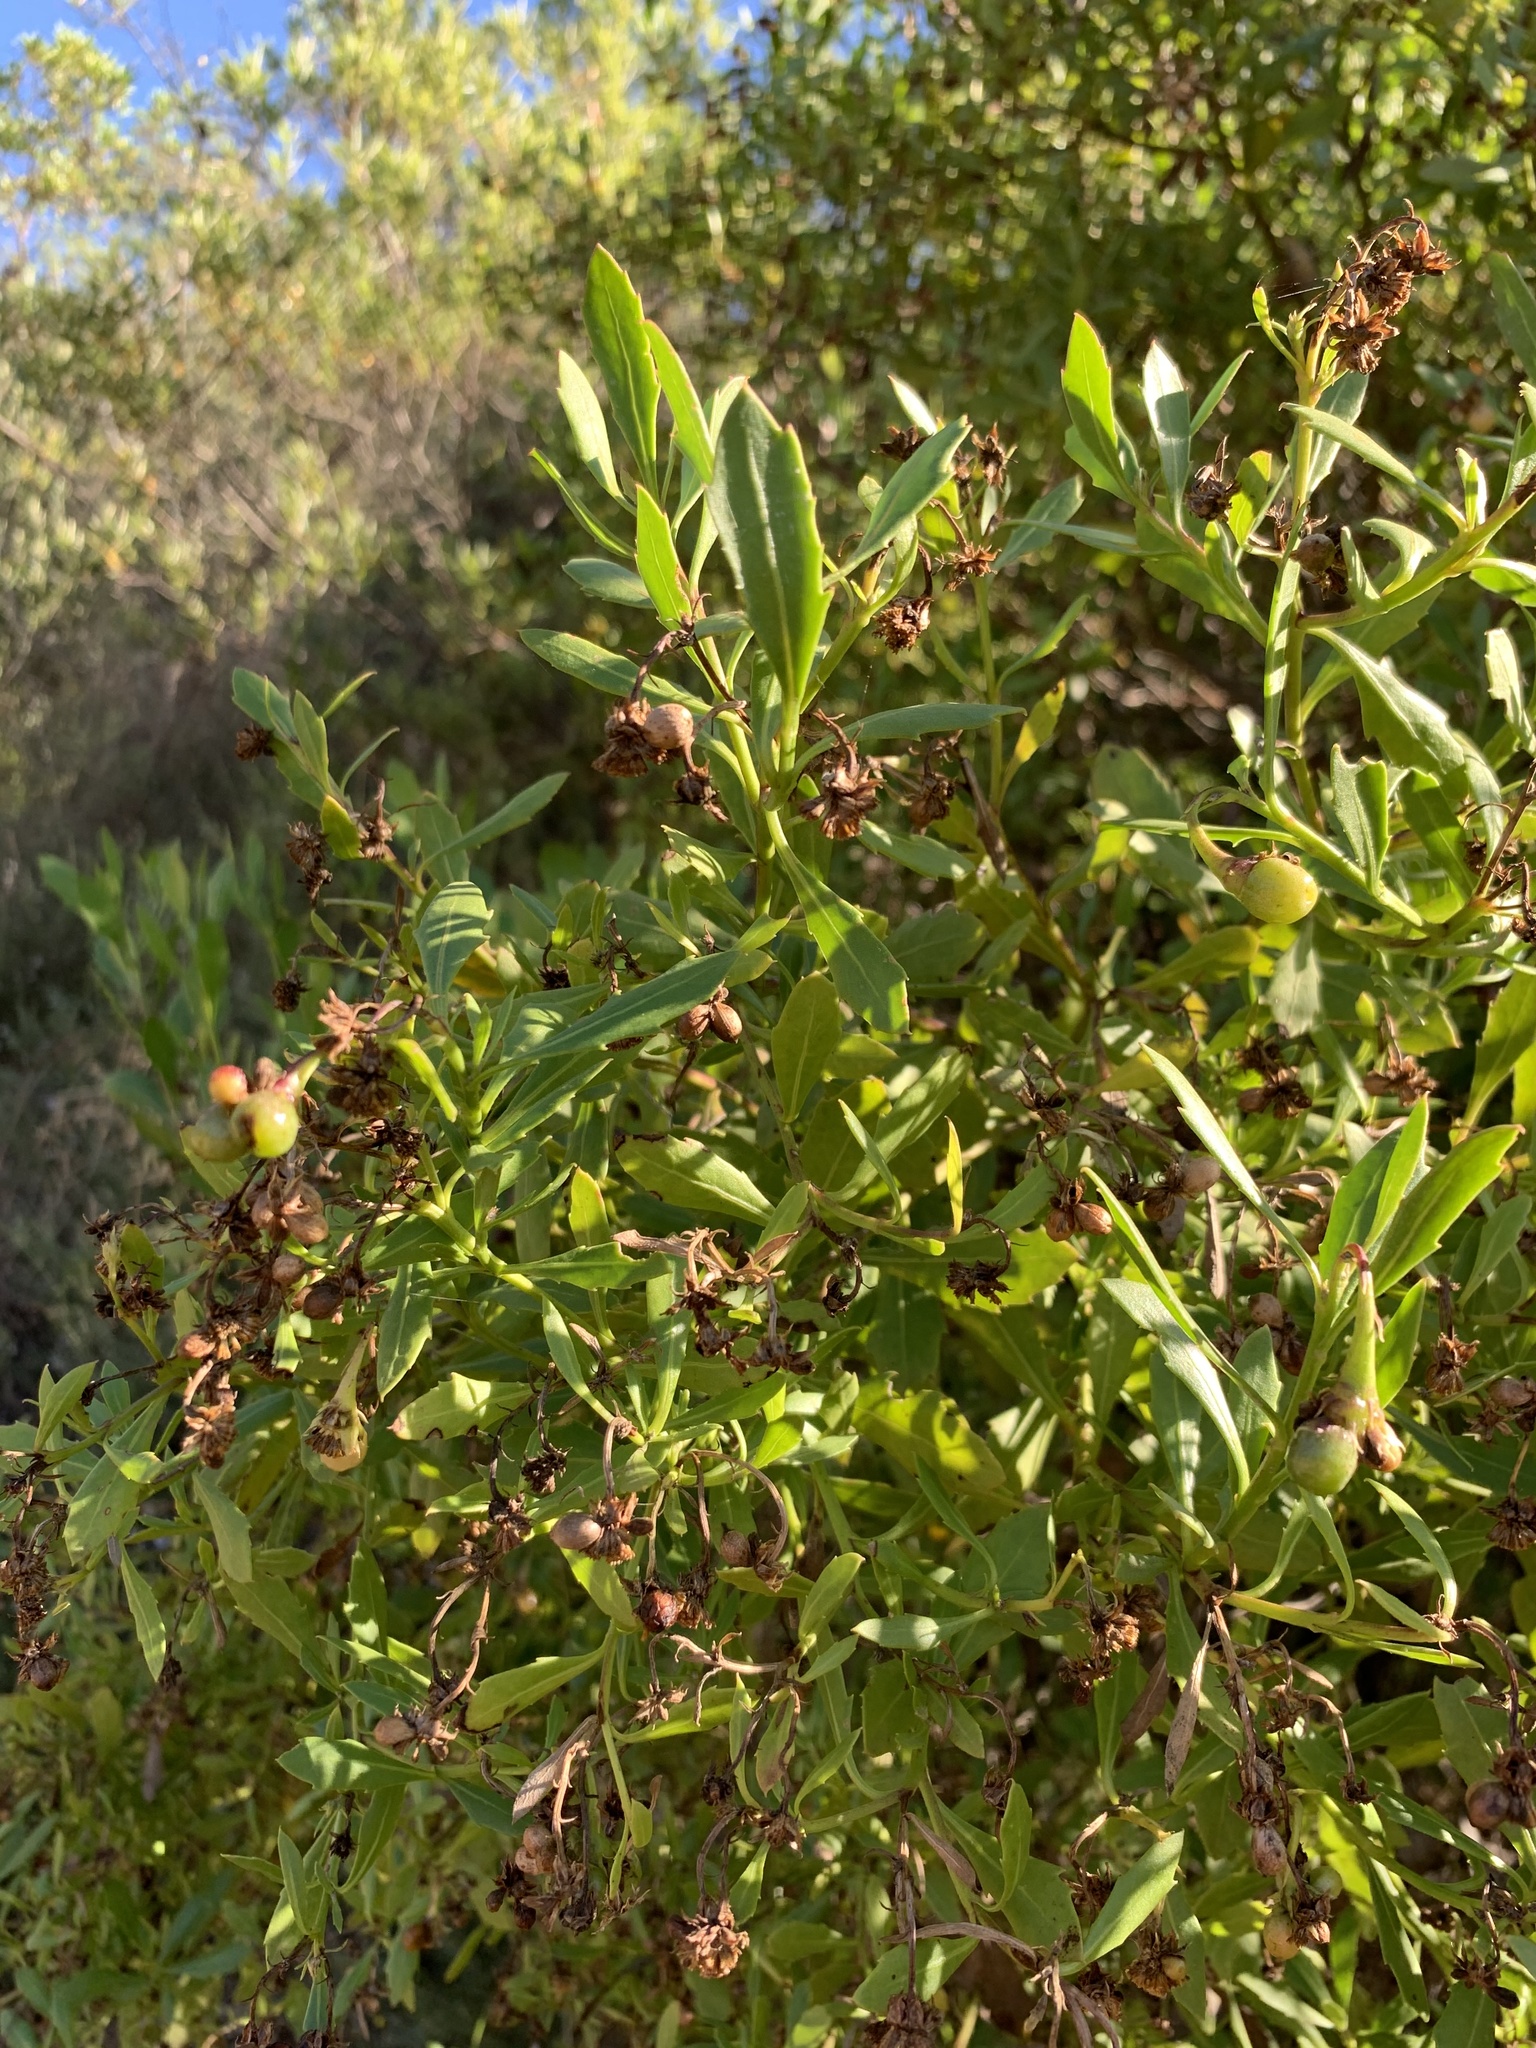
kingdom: Plantae
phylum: Tracheophyta
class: Magnoliopsida
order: Asterales
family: Asteraceae
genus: Osteospermum
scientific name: Osteospermum moniliferum
